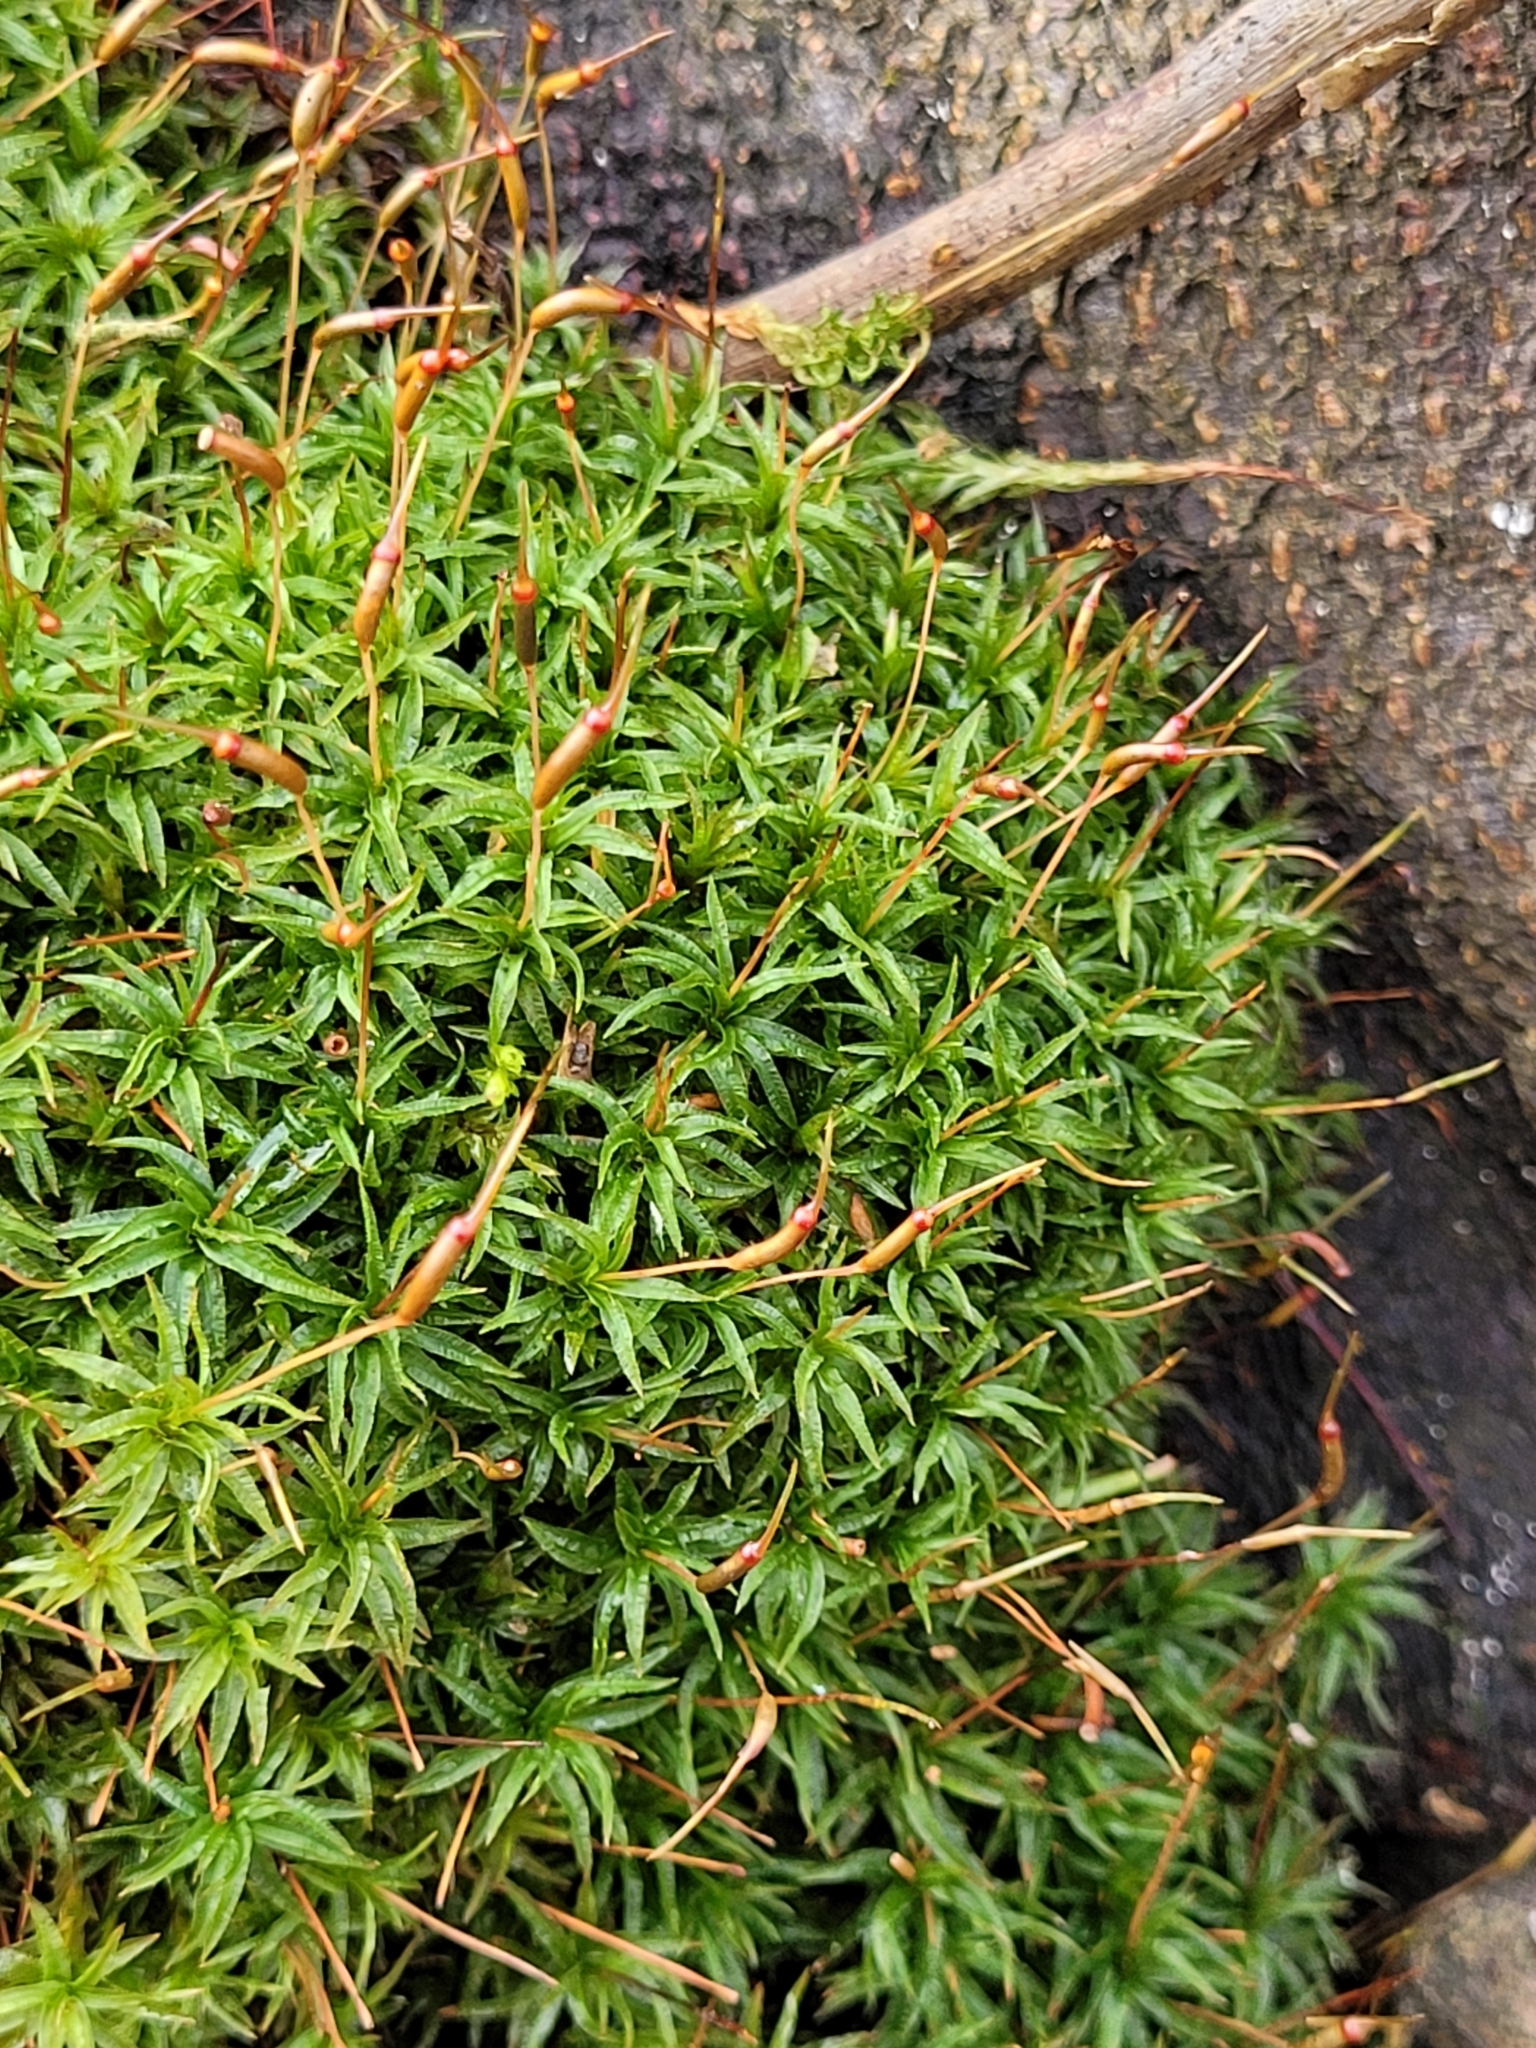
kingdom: Plantae
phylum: Bryophyta
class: Polytrichopsida
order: Polytrichales
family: Polytrichaceae
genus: Atrichum
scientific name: Atrichum undulatum
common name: Common smoothcap
